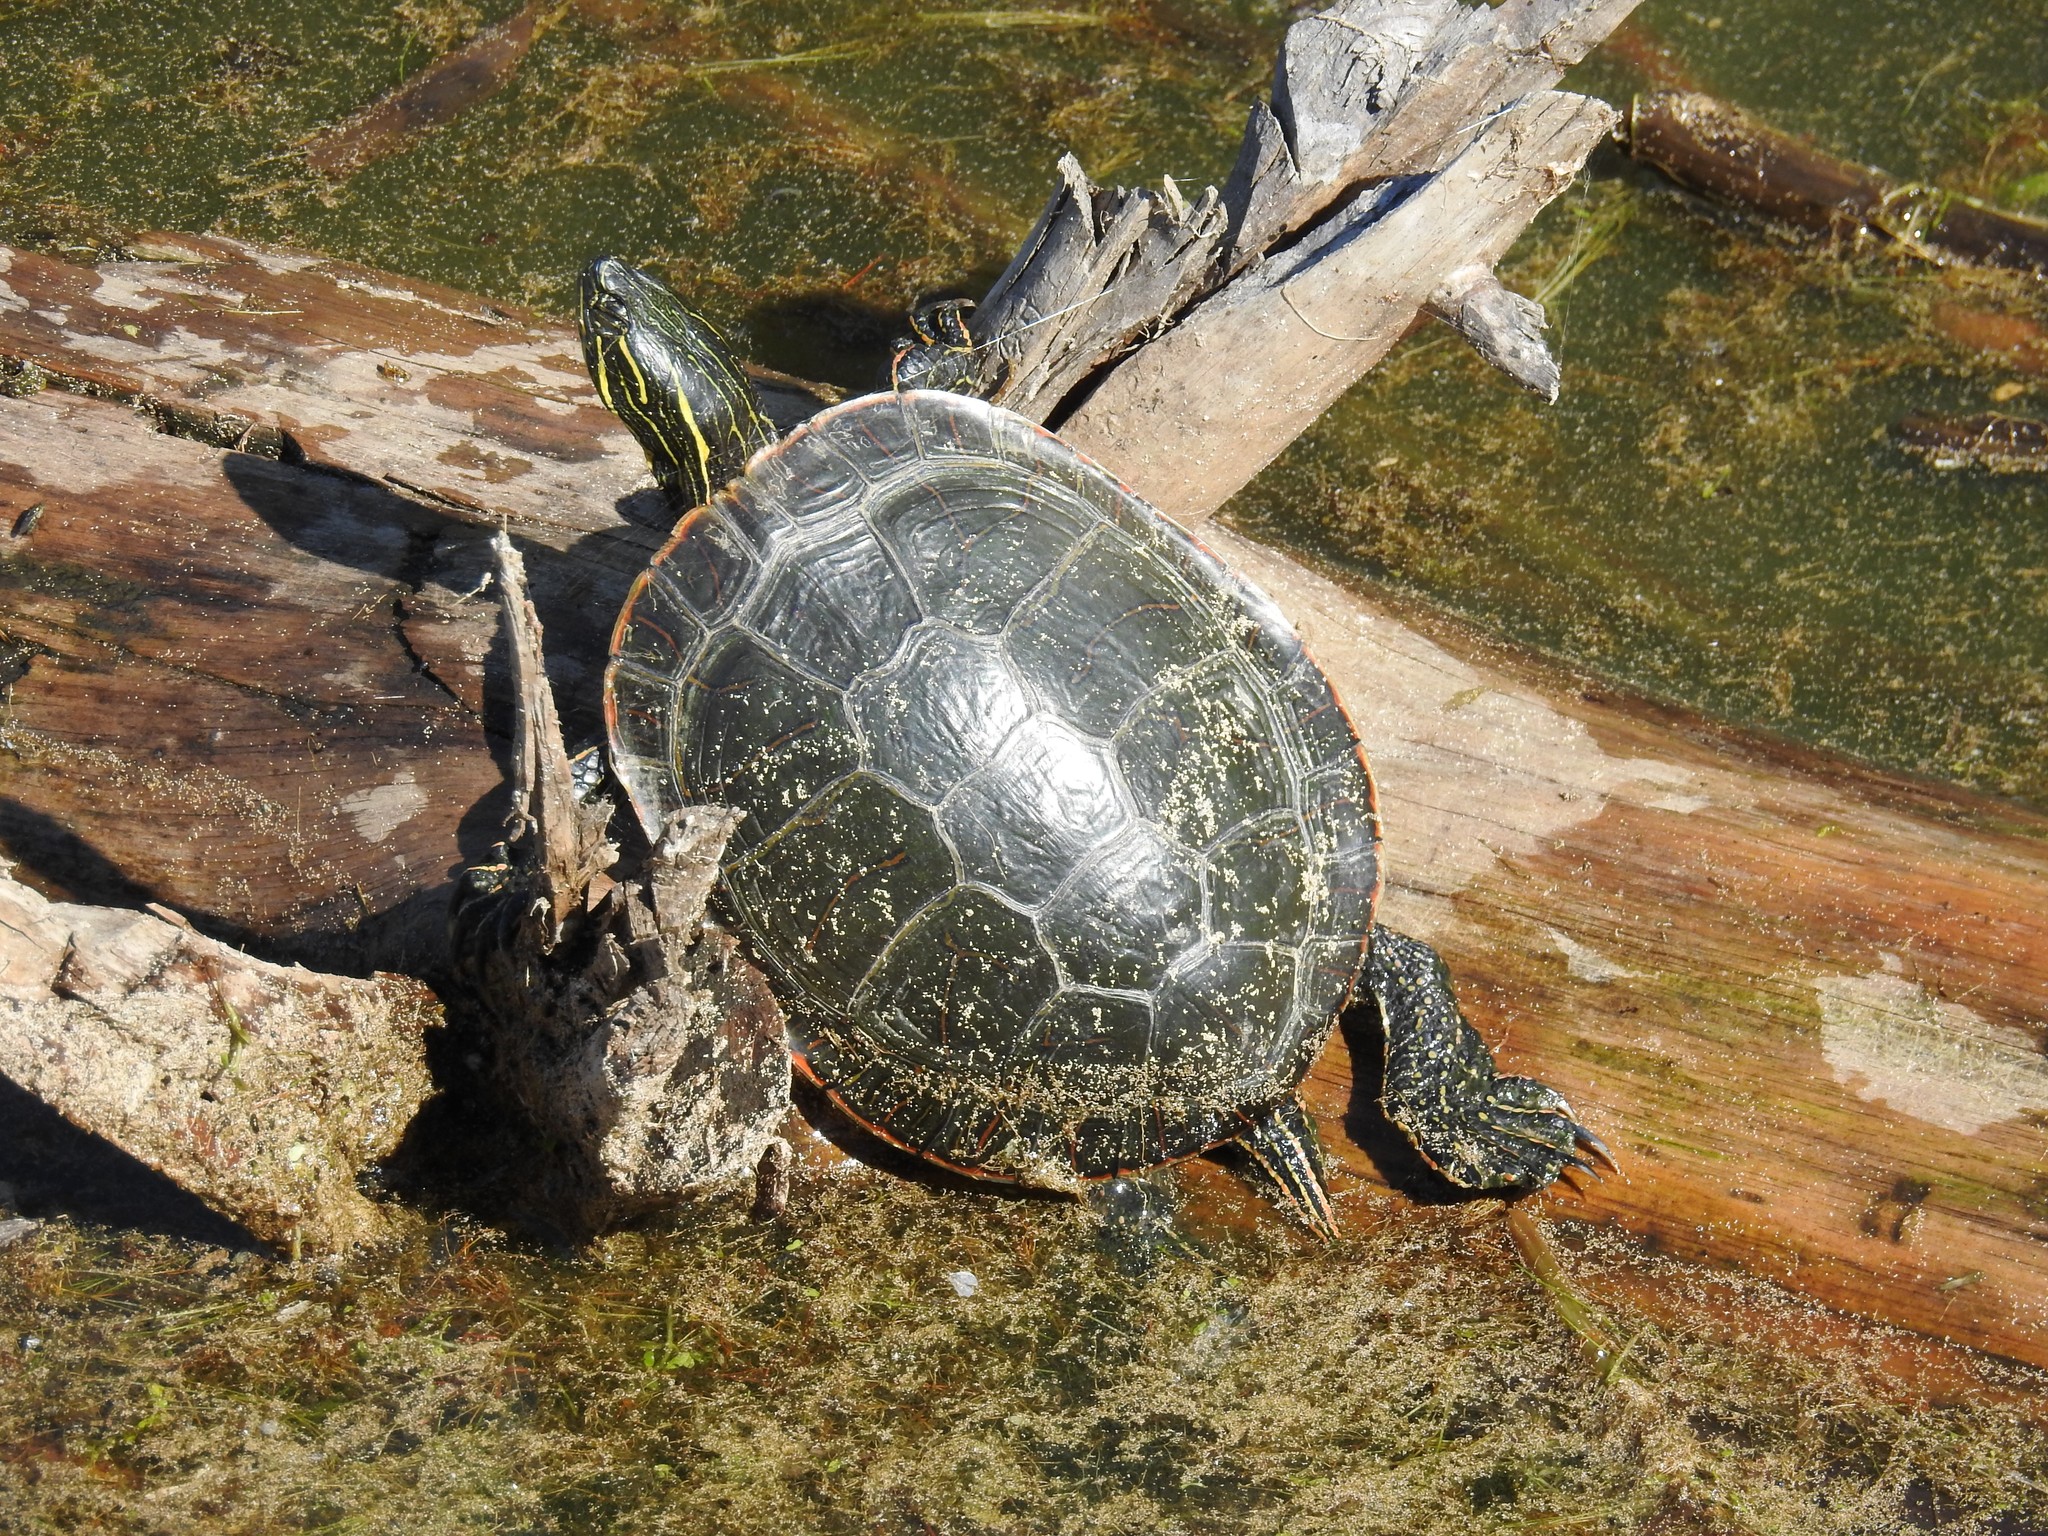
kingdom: Animalia
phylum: Chordata
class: Testudines
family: Emydidae
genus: Chrysemys
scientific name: Chrysemys picta
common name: Painted turtle
